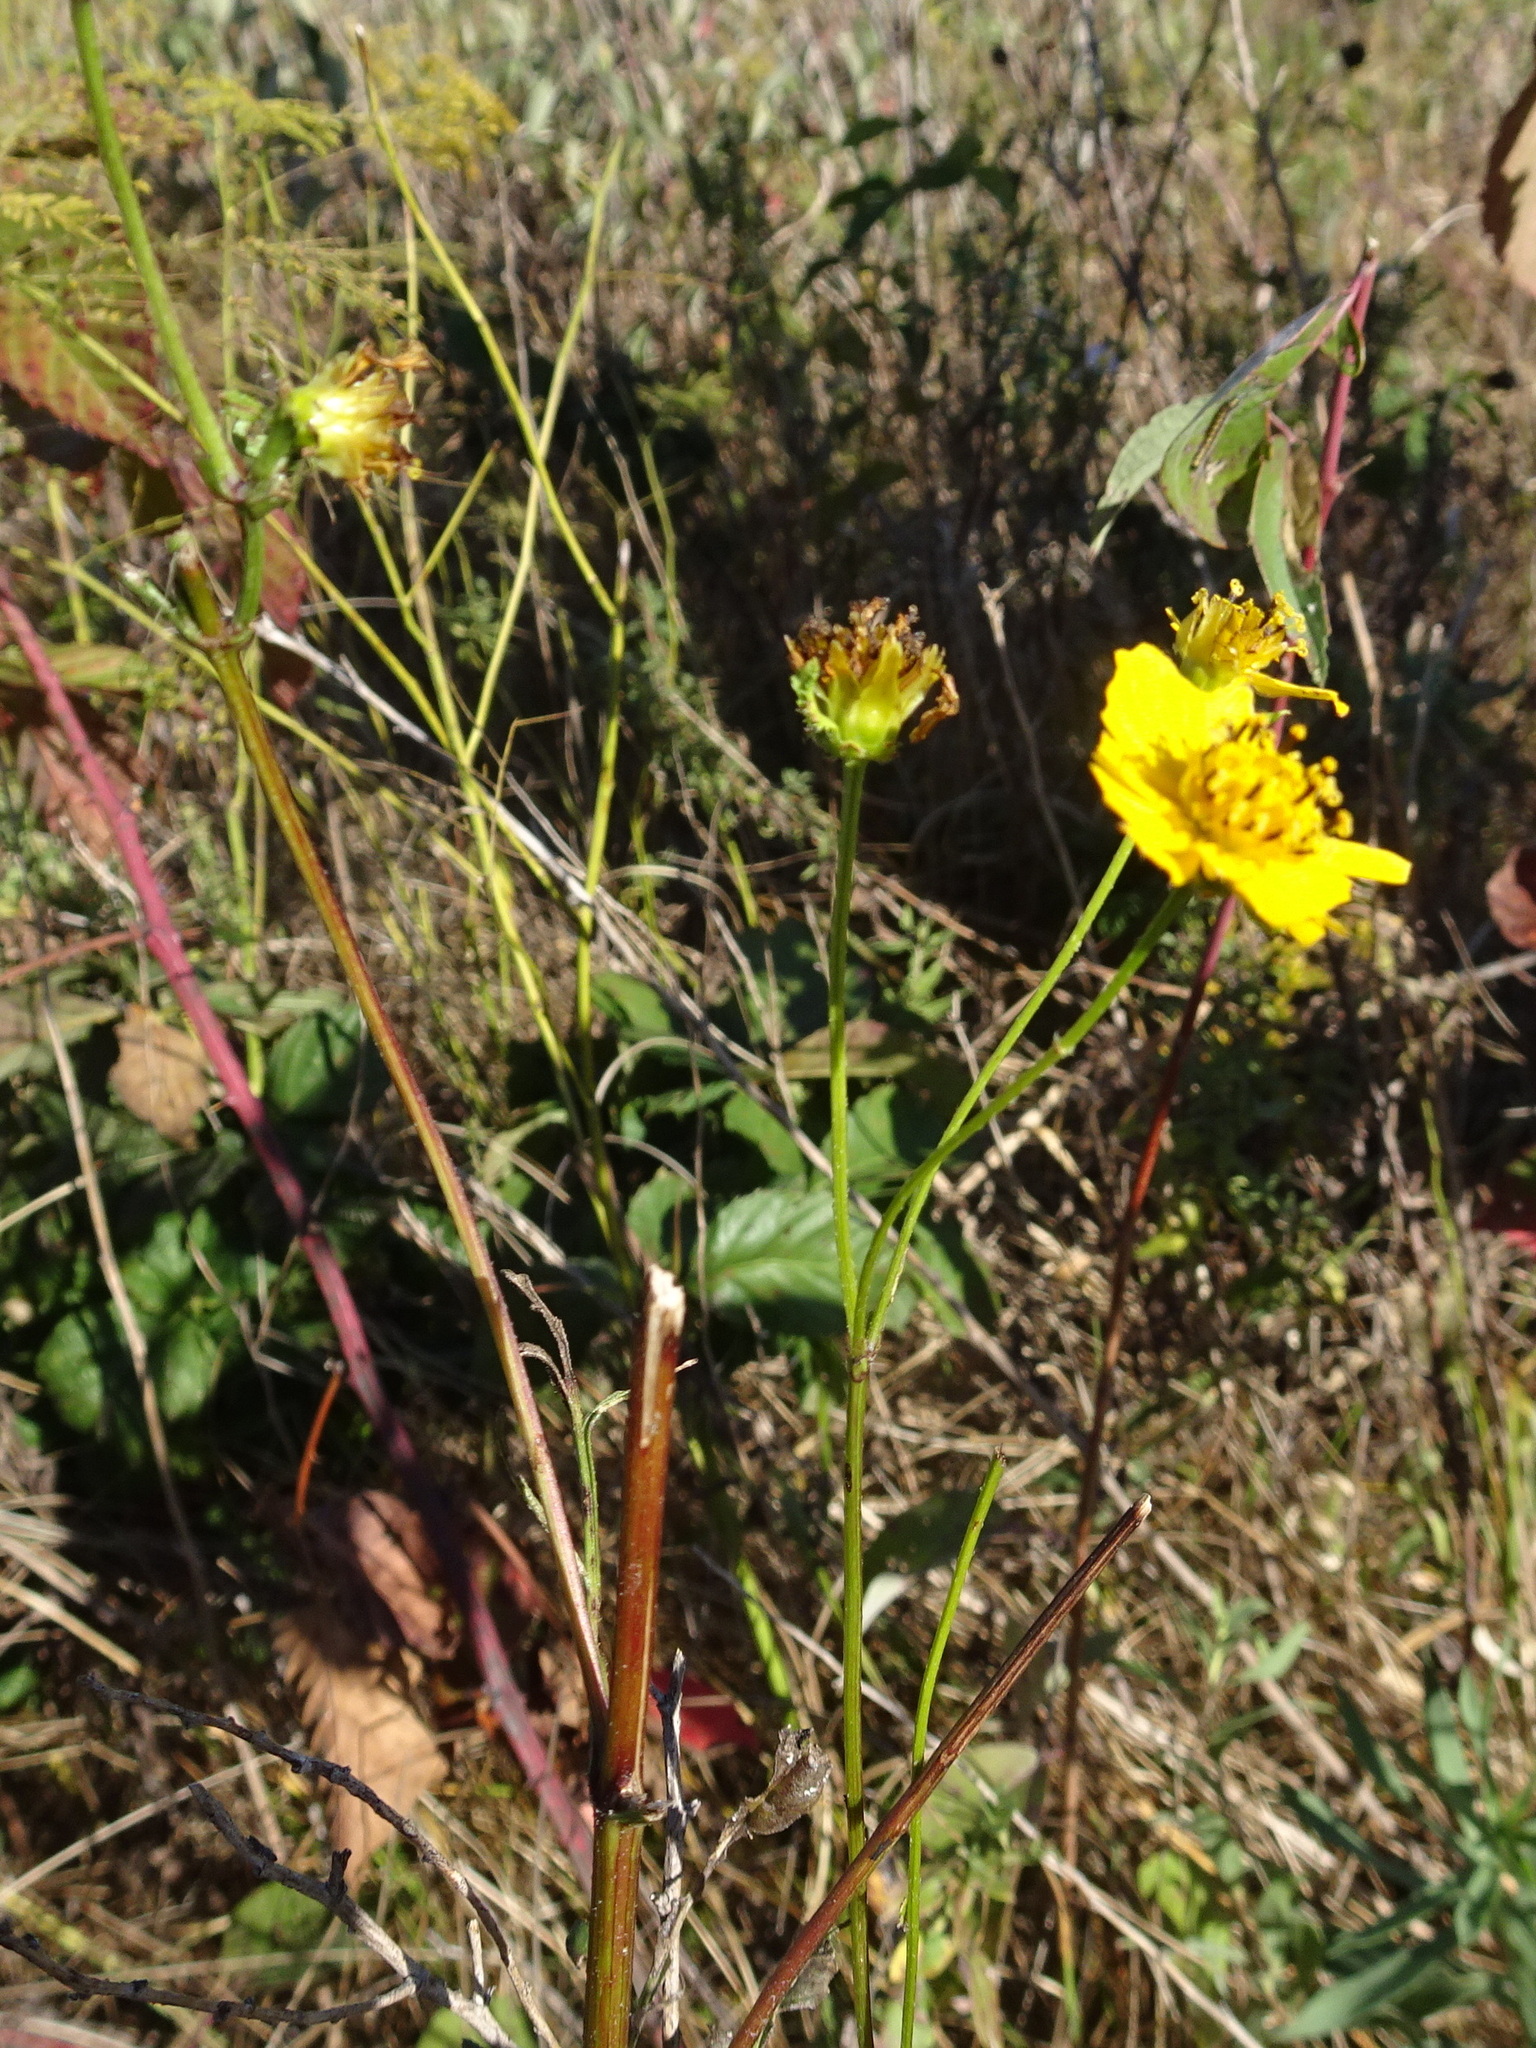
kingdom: Plantae
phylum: Tracheophyta
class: Magnoliopsida
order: Asterales
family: Asteraceae
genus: Bidens
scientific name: Bidens polylepis
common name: Awnless beggarticks
